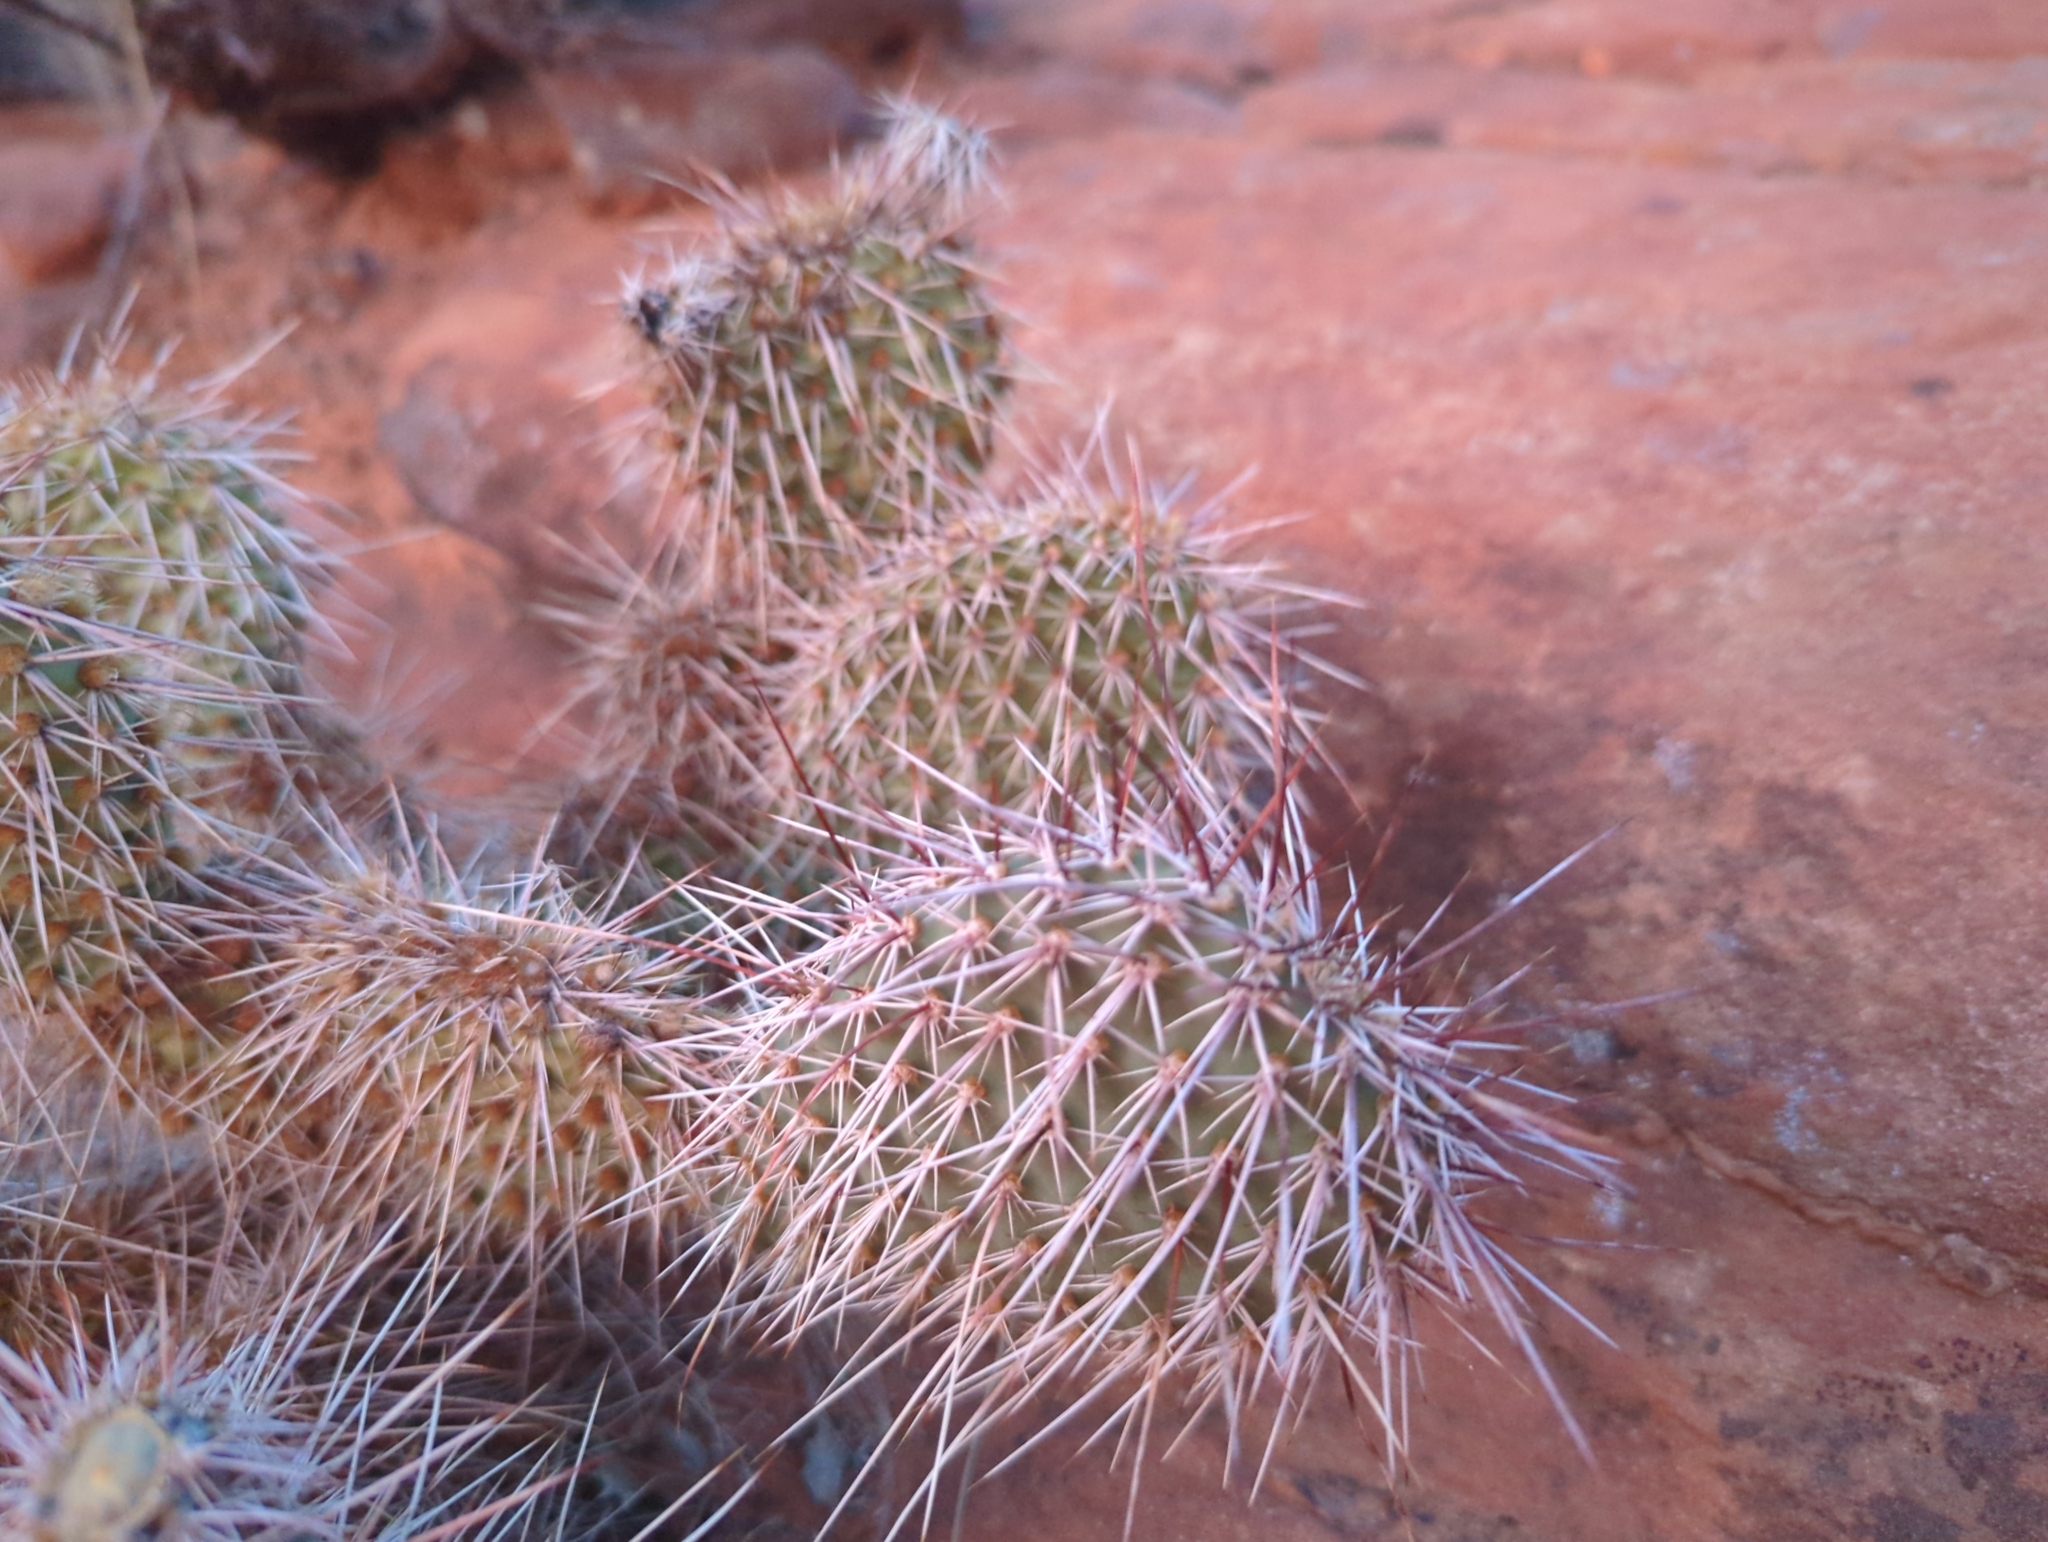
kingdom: Plantae
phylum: Tracheophyta
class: Magnoliopsida
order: Caryophyllales
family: Cactaceae
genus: Opuntia
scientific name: Opuntia polyacantha
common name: Plains prickly-pear
